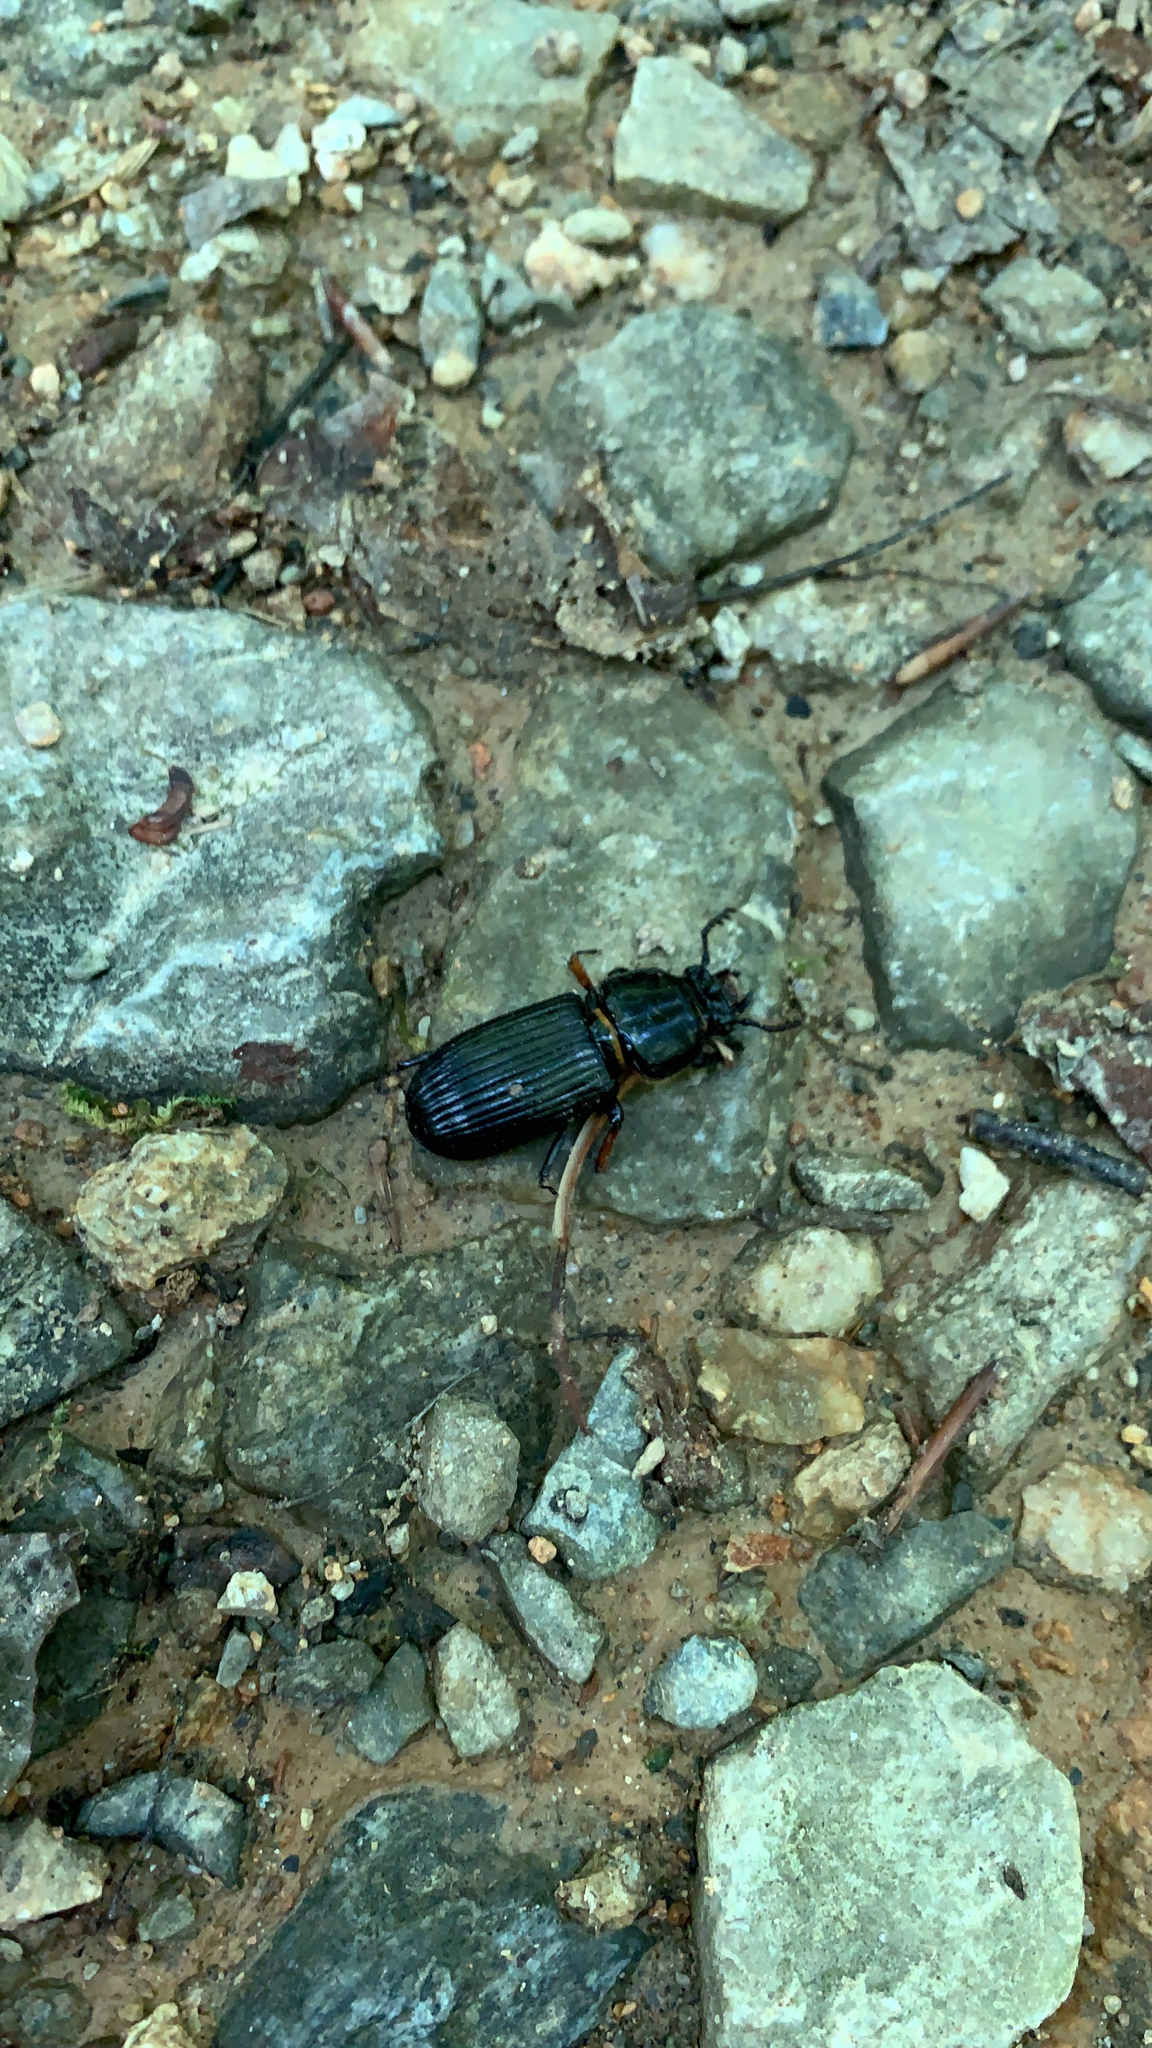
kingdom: Animalia
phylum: Arthropoda
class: Insecta
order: Coleoptera
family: Passalidae
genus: Odontotaenius
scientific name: Odontotaenius disjunctus
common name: Patent leather beetle
